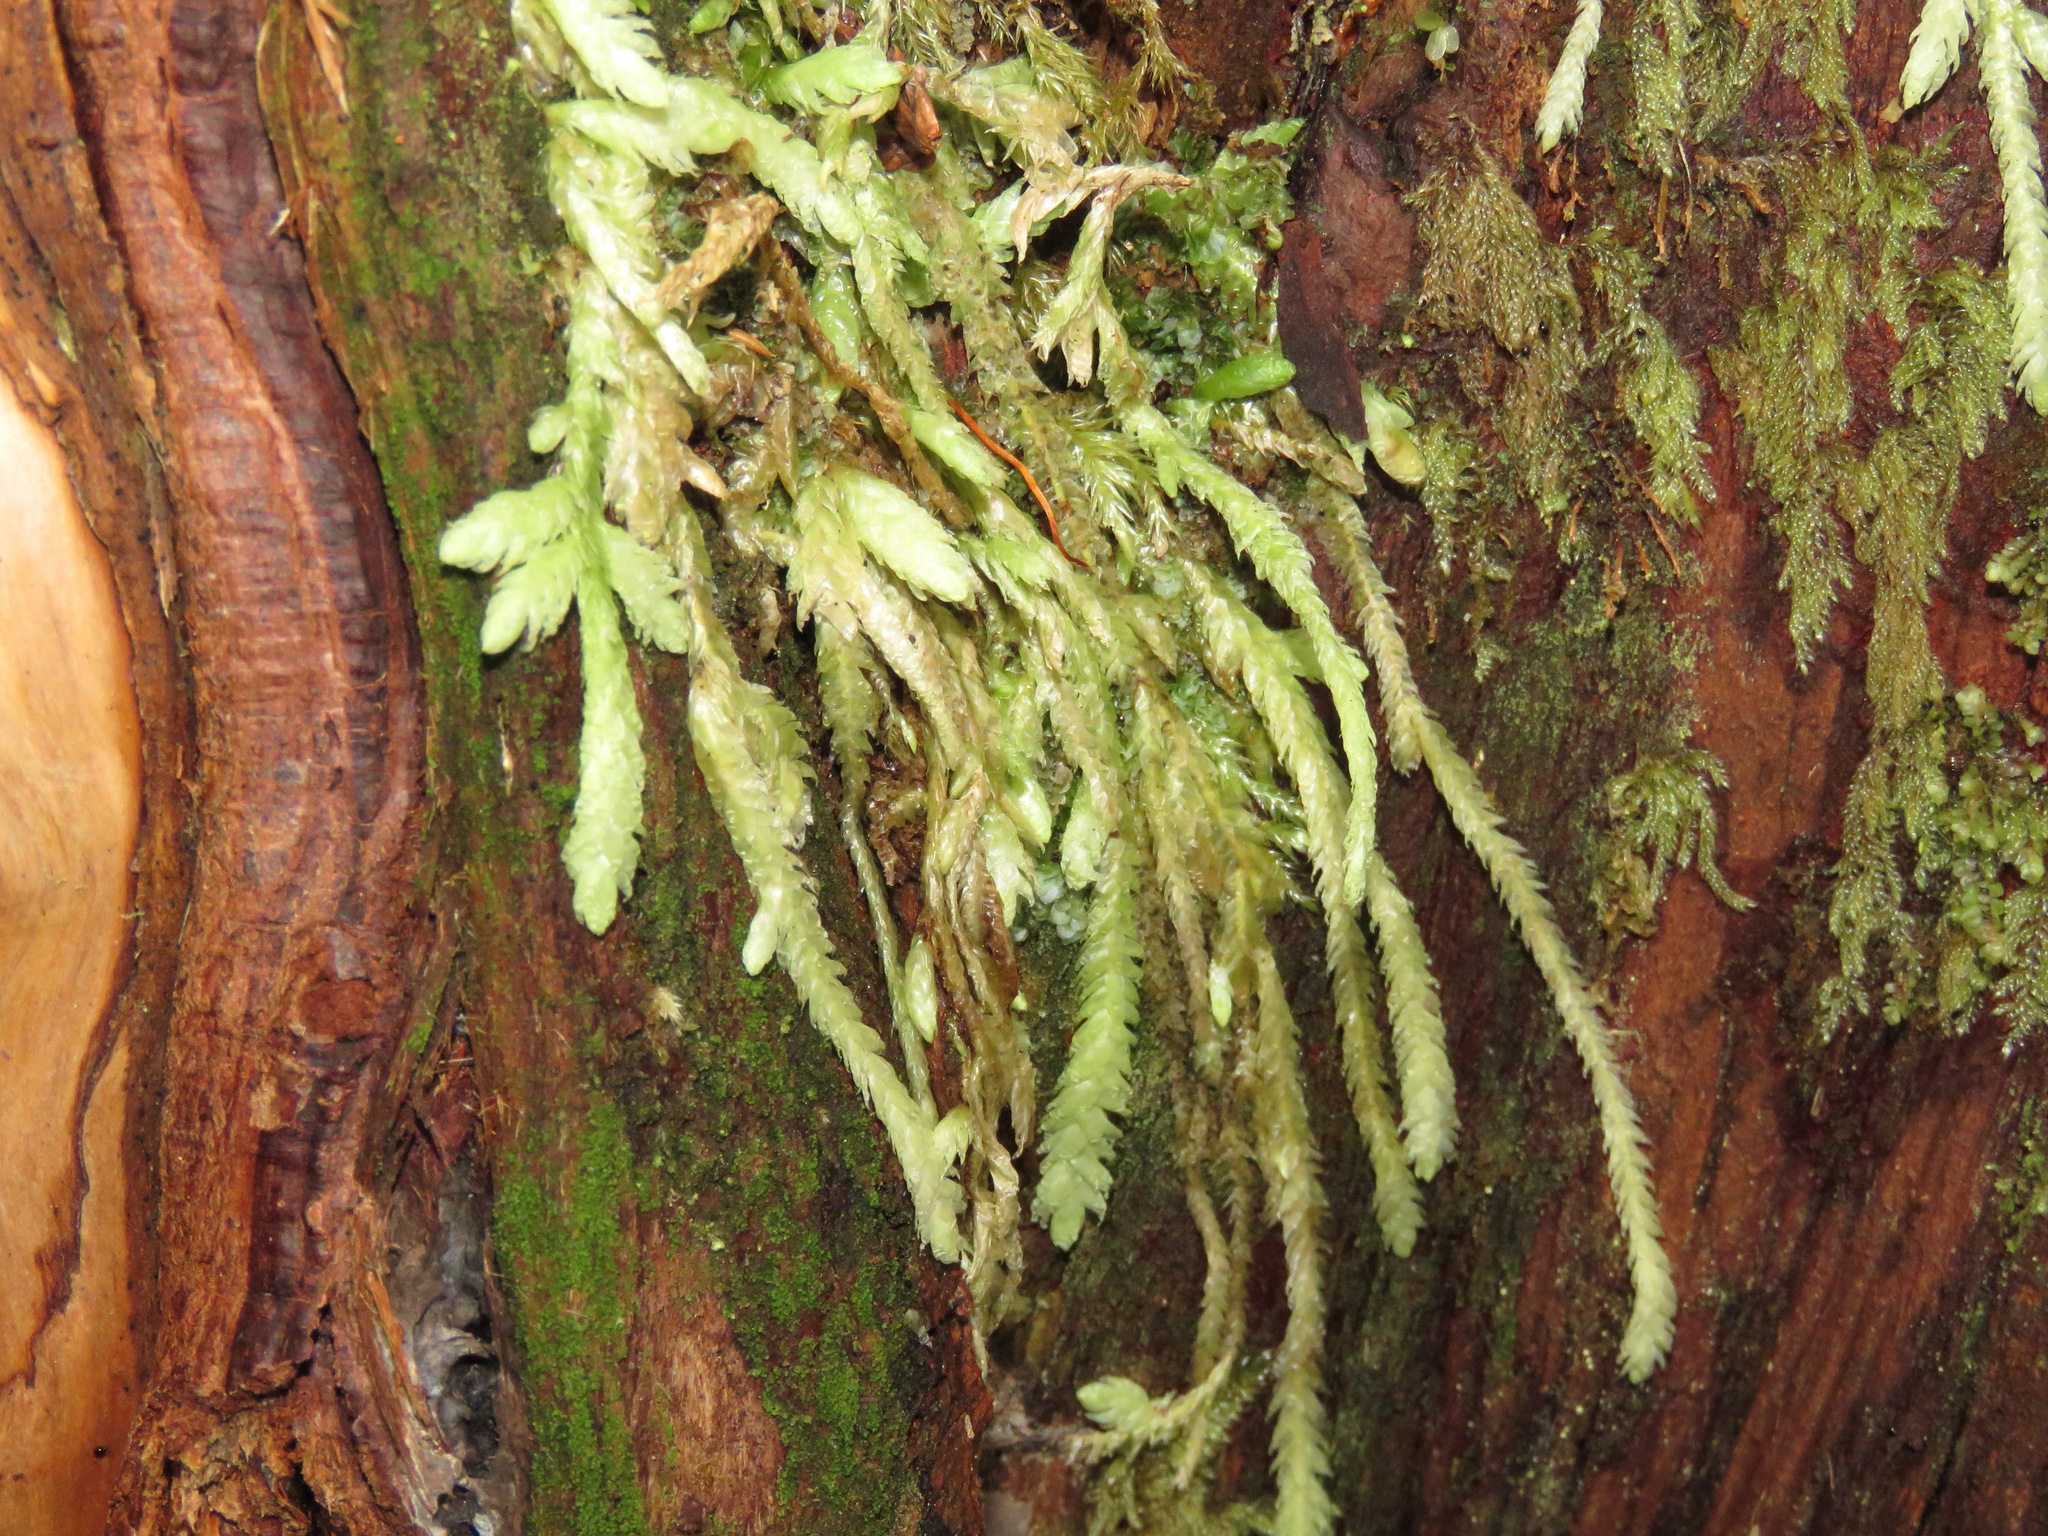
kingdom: Plantae
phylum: Bryophyta
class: Bryopsida
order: Hypnales
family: Plagiotheciaceae
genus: Plagiothecium
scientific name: Plagiothecium undulatum
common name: Waved silk-moss
